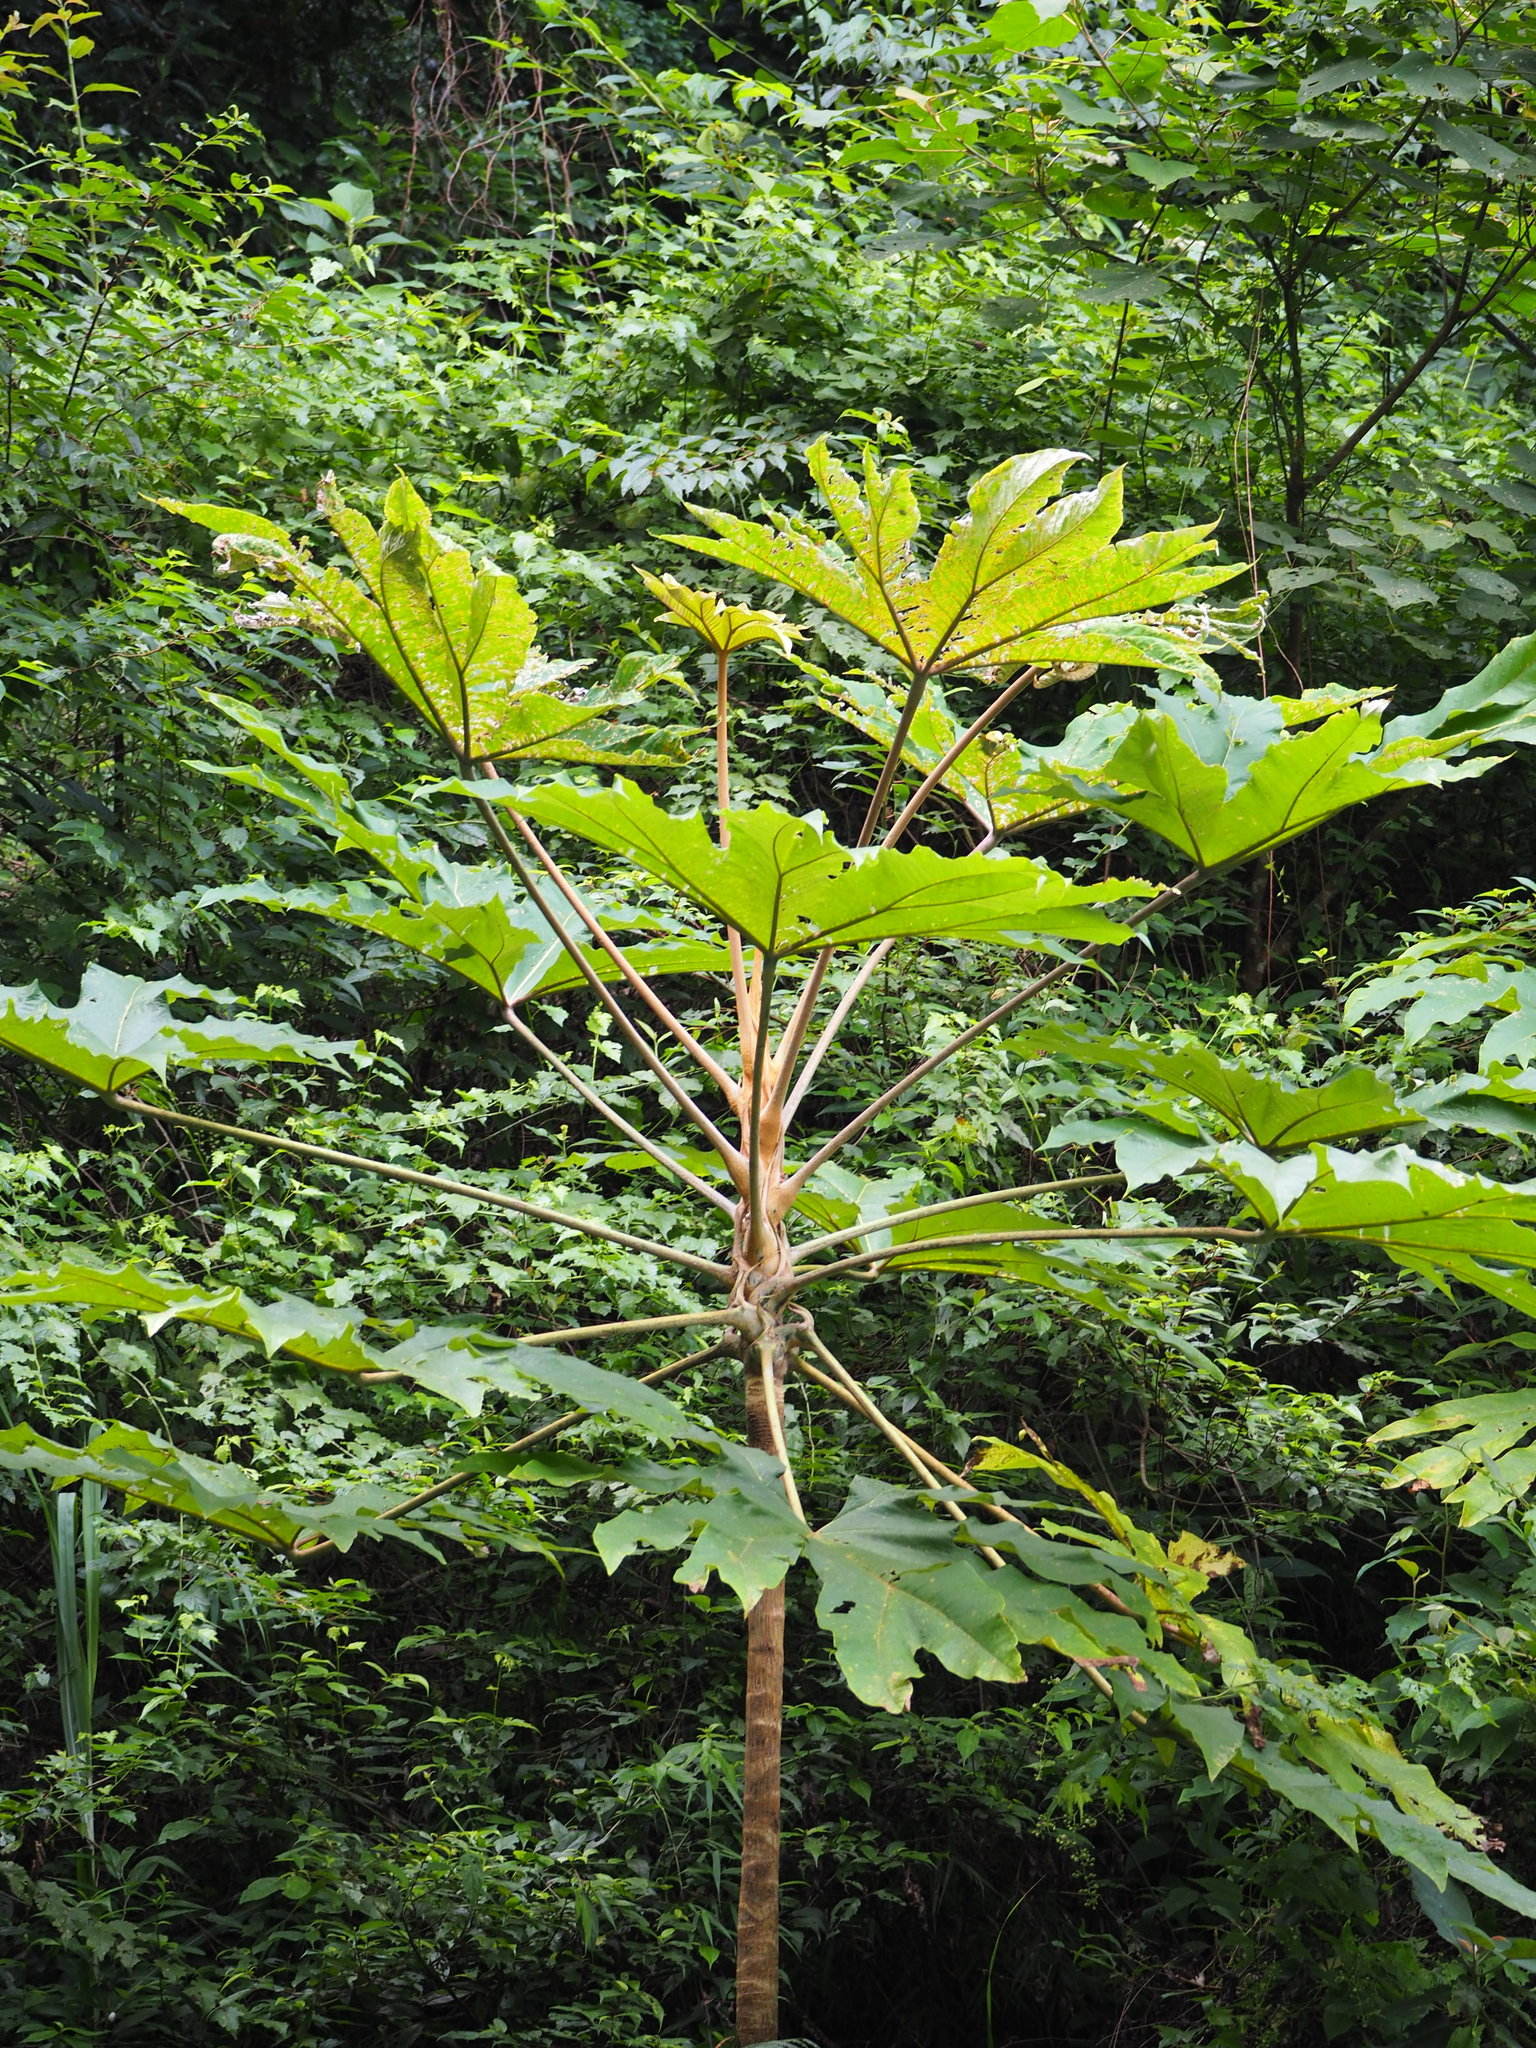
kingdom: Plantae
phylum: Tracheophyta
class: Magnoliopsida
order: Apiales
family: Araliaceae
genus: Tetrapanax
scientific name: Tetrapanax papyrifer
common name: Rice-paper plant
